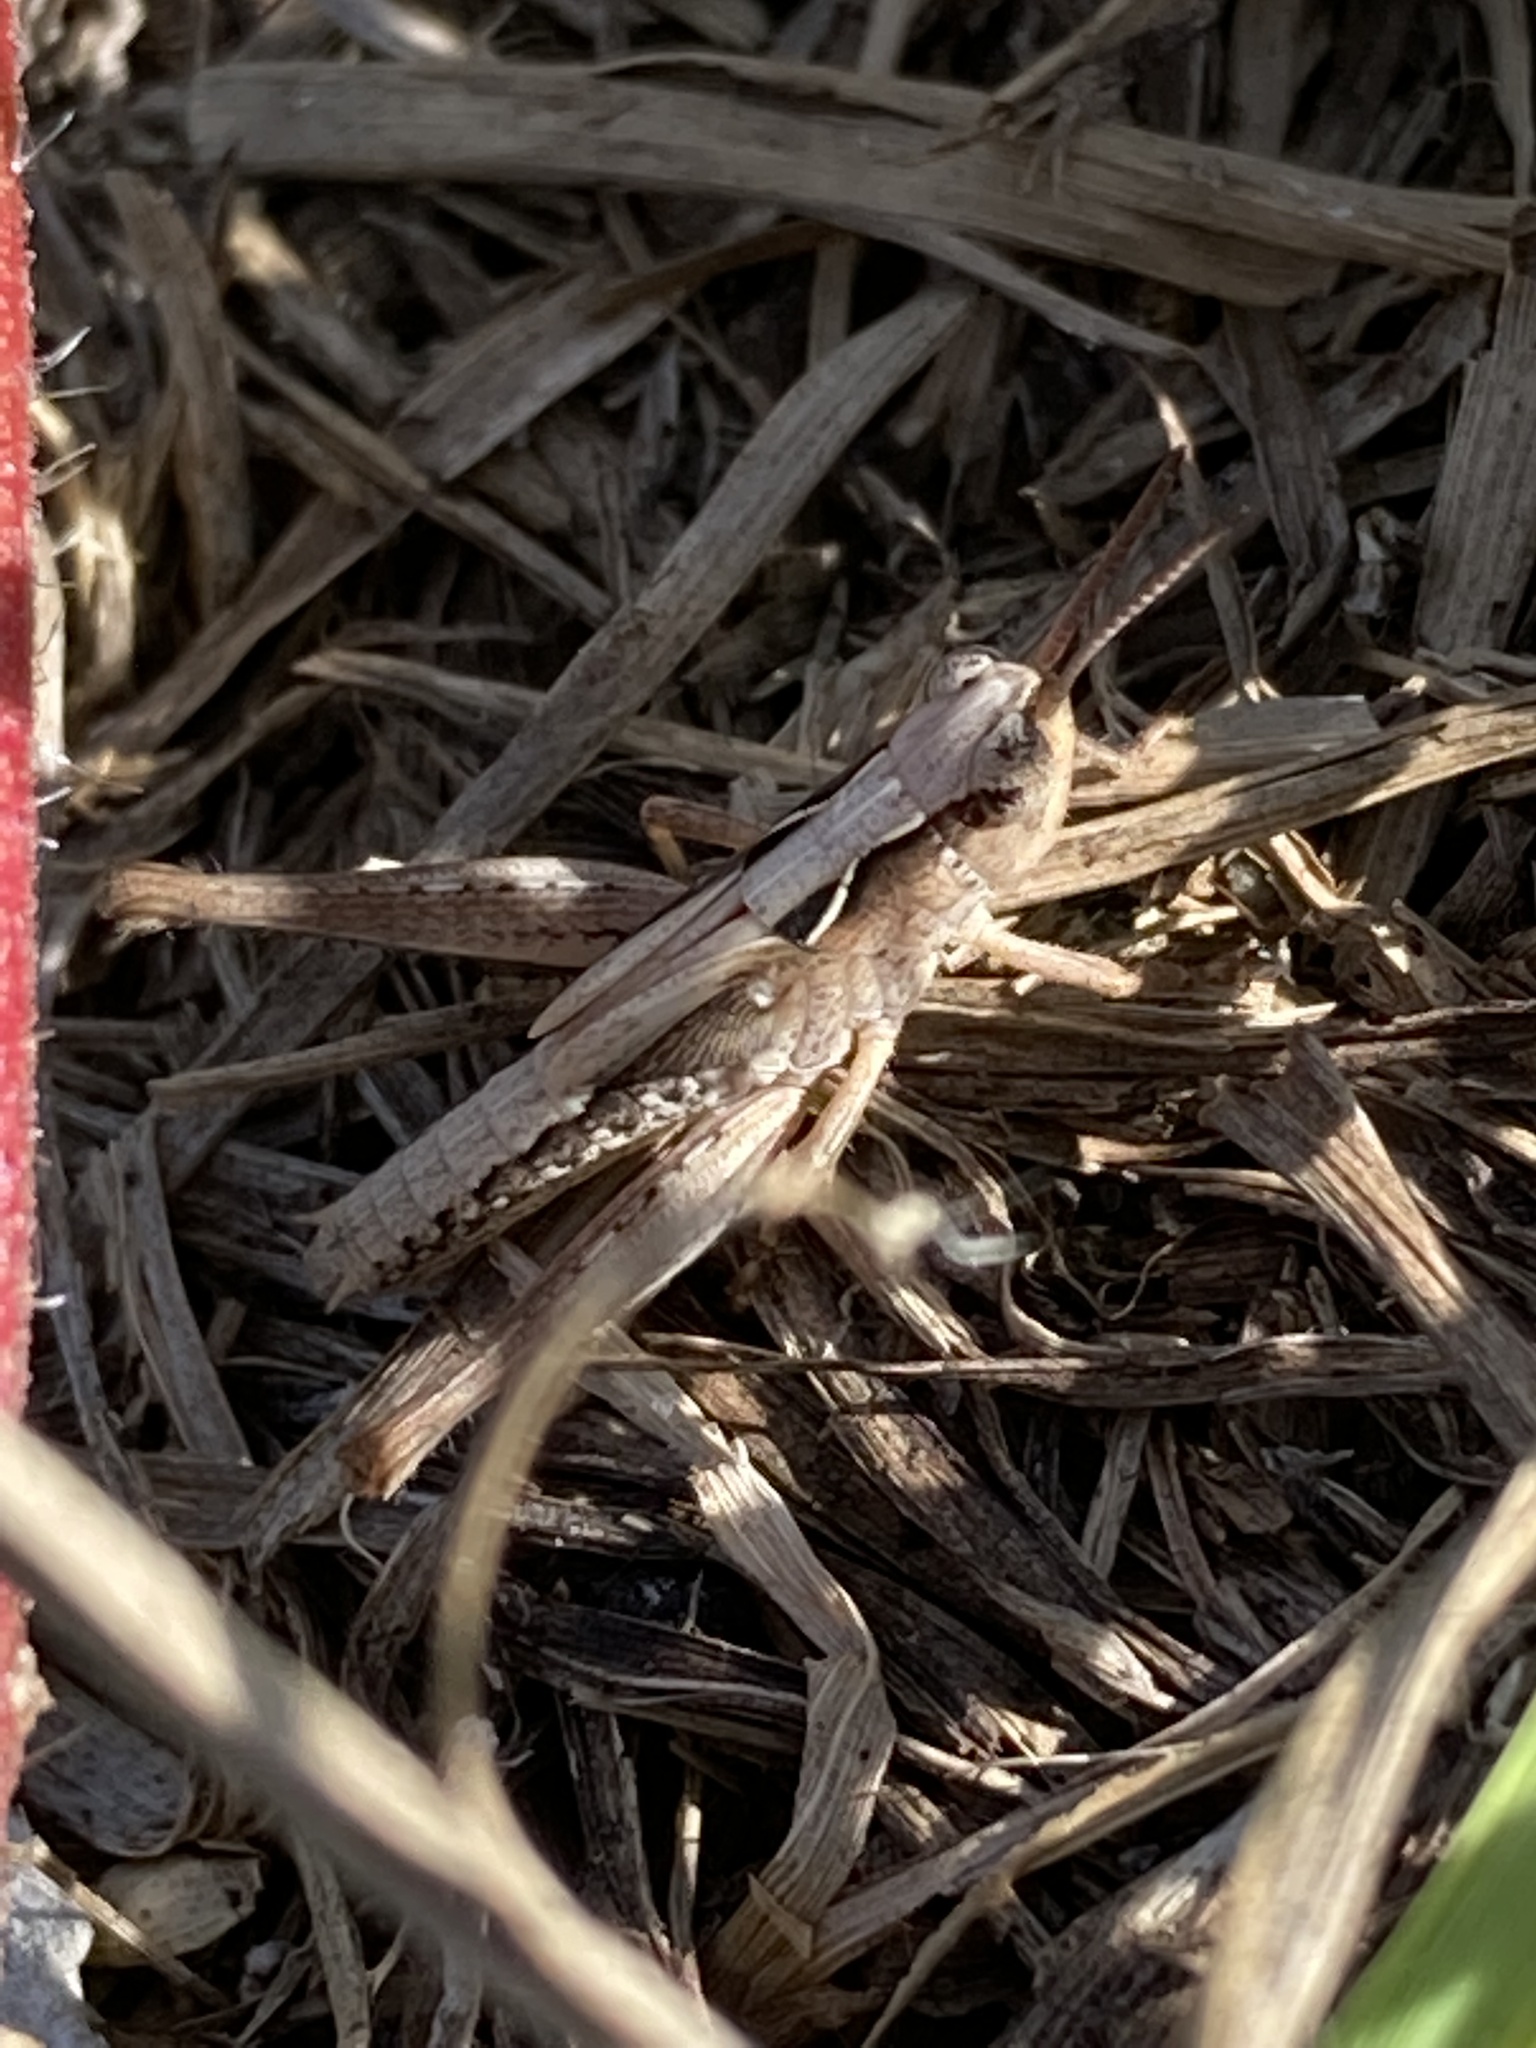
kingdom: Animalia
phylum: Arthropoda
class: Insecta
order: Orthoptera
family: Acrididae
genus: Orphulella
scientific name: Orphulella punctata
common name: Slant-faced grasshopper
